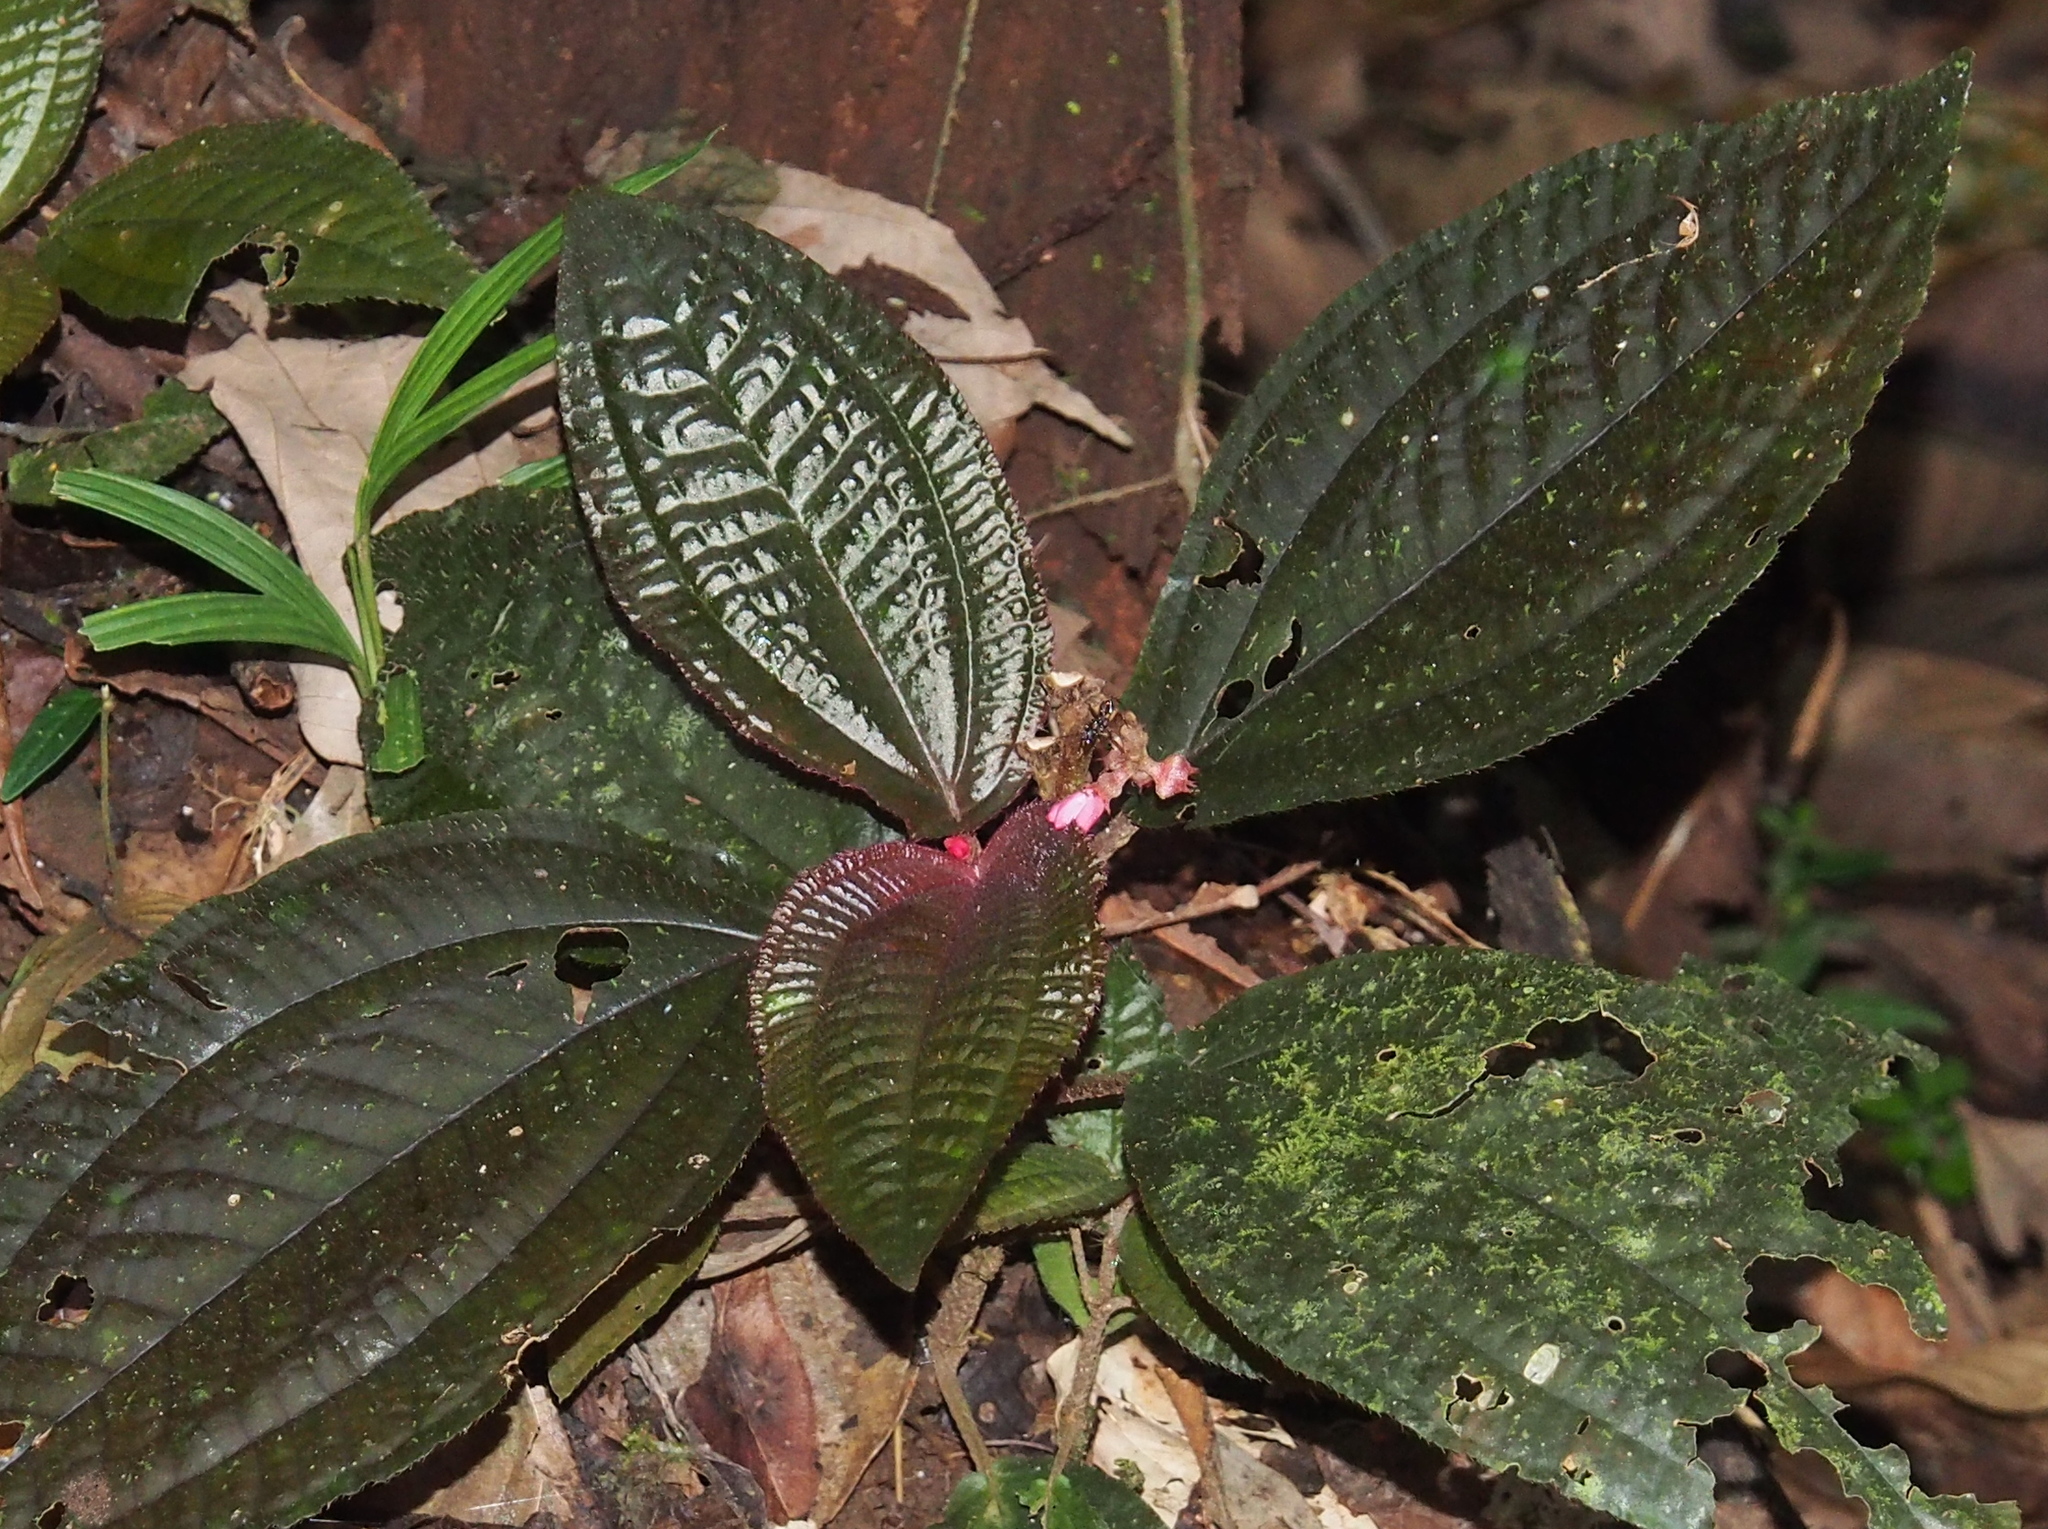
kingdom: Plantae
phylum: Tracheophyta
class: Magnoliopsida
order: Myrtales
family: Melastomataceae
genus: Triolena
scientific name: Triolena hirsuta
